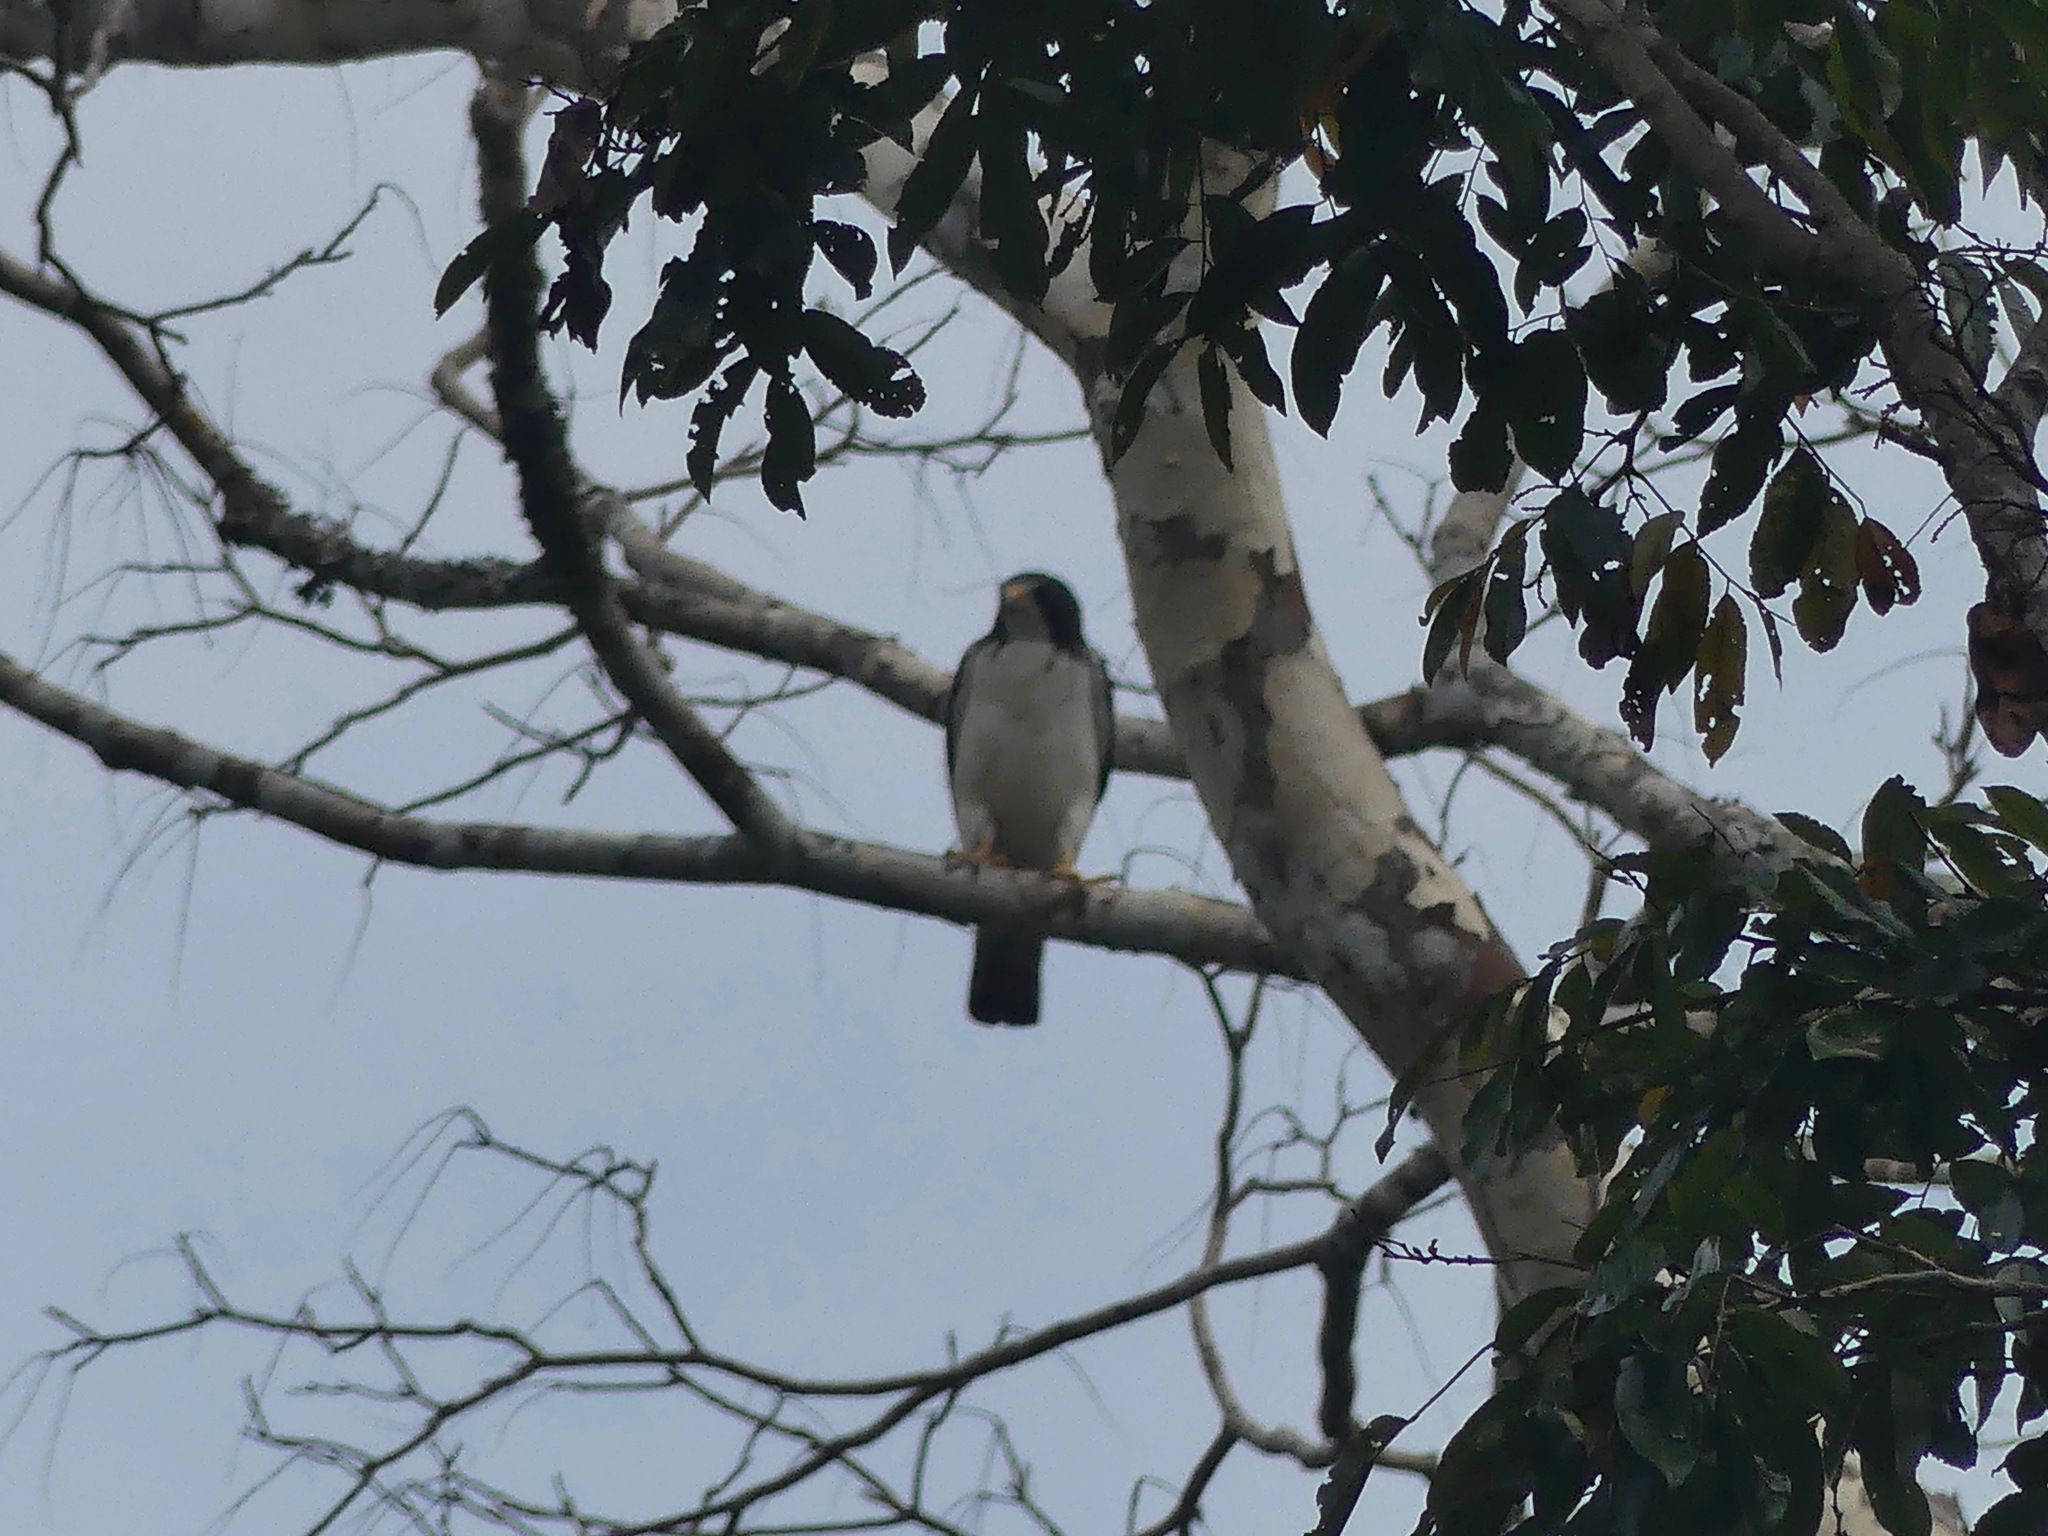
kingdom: Animalia
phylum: Chordata
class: Aves
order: Accipitriformes
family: Accipitridae
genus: Buteo
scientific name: Buteo brachyurus
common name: Short-tailed hawk
